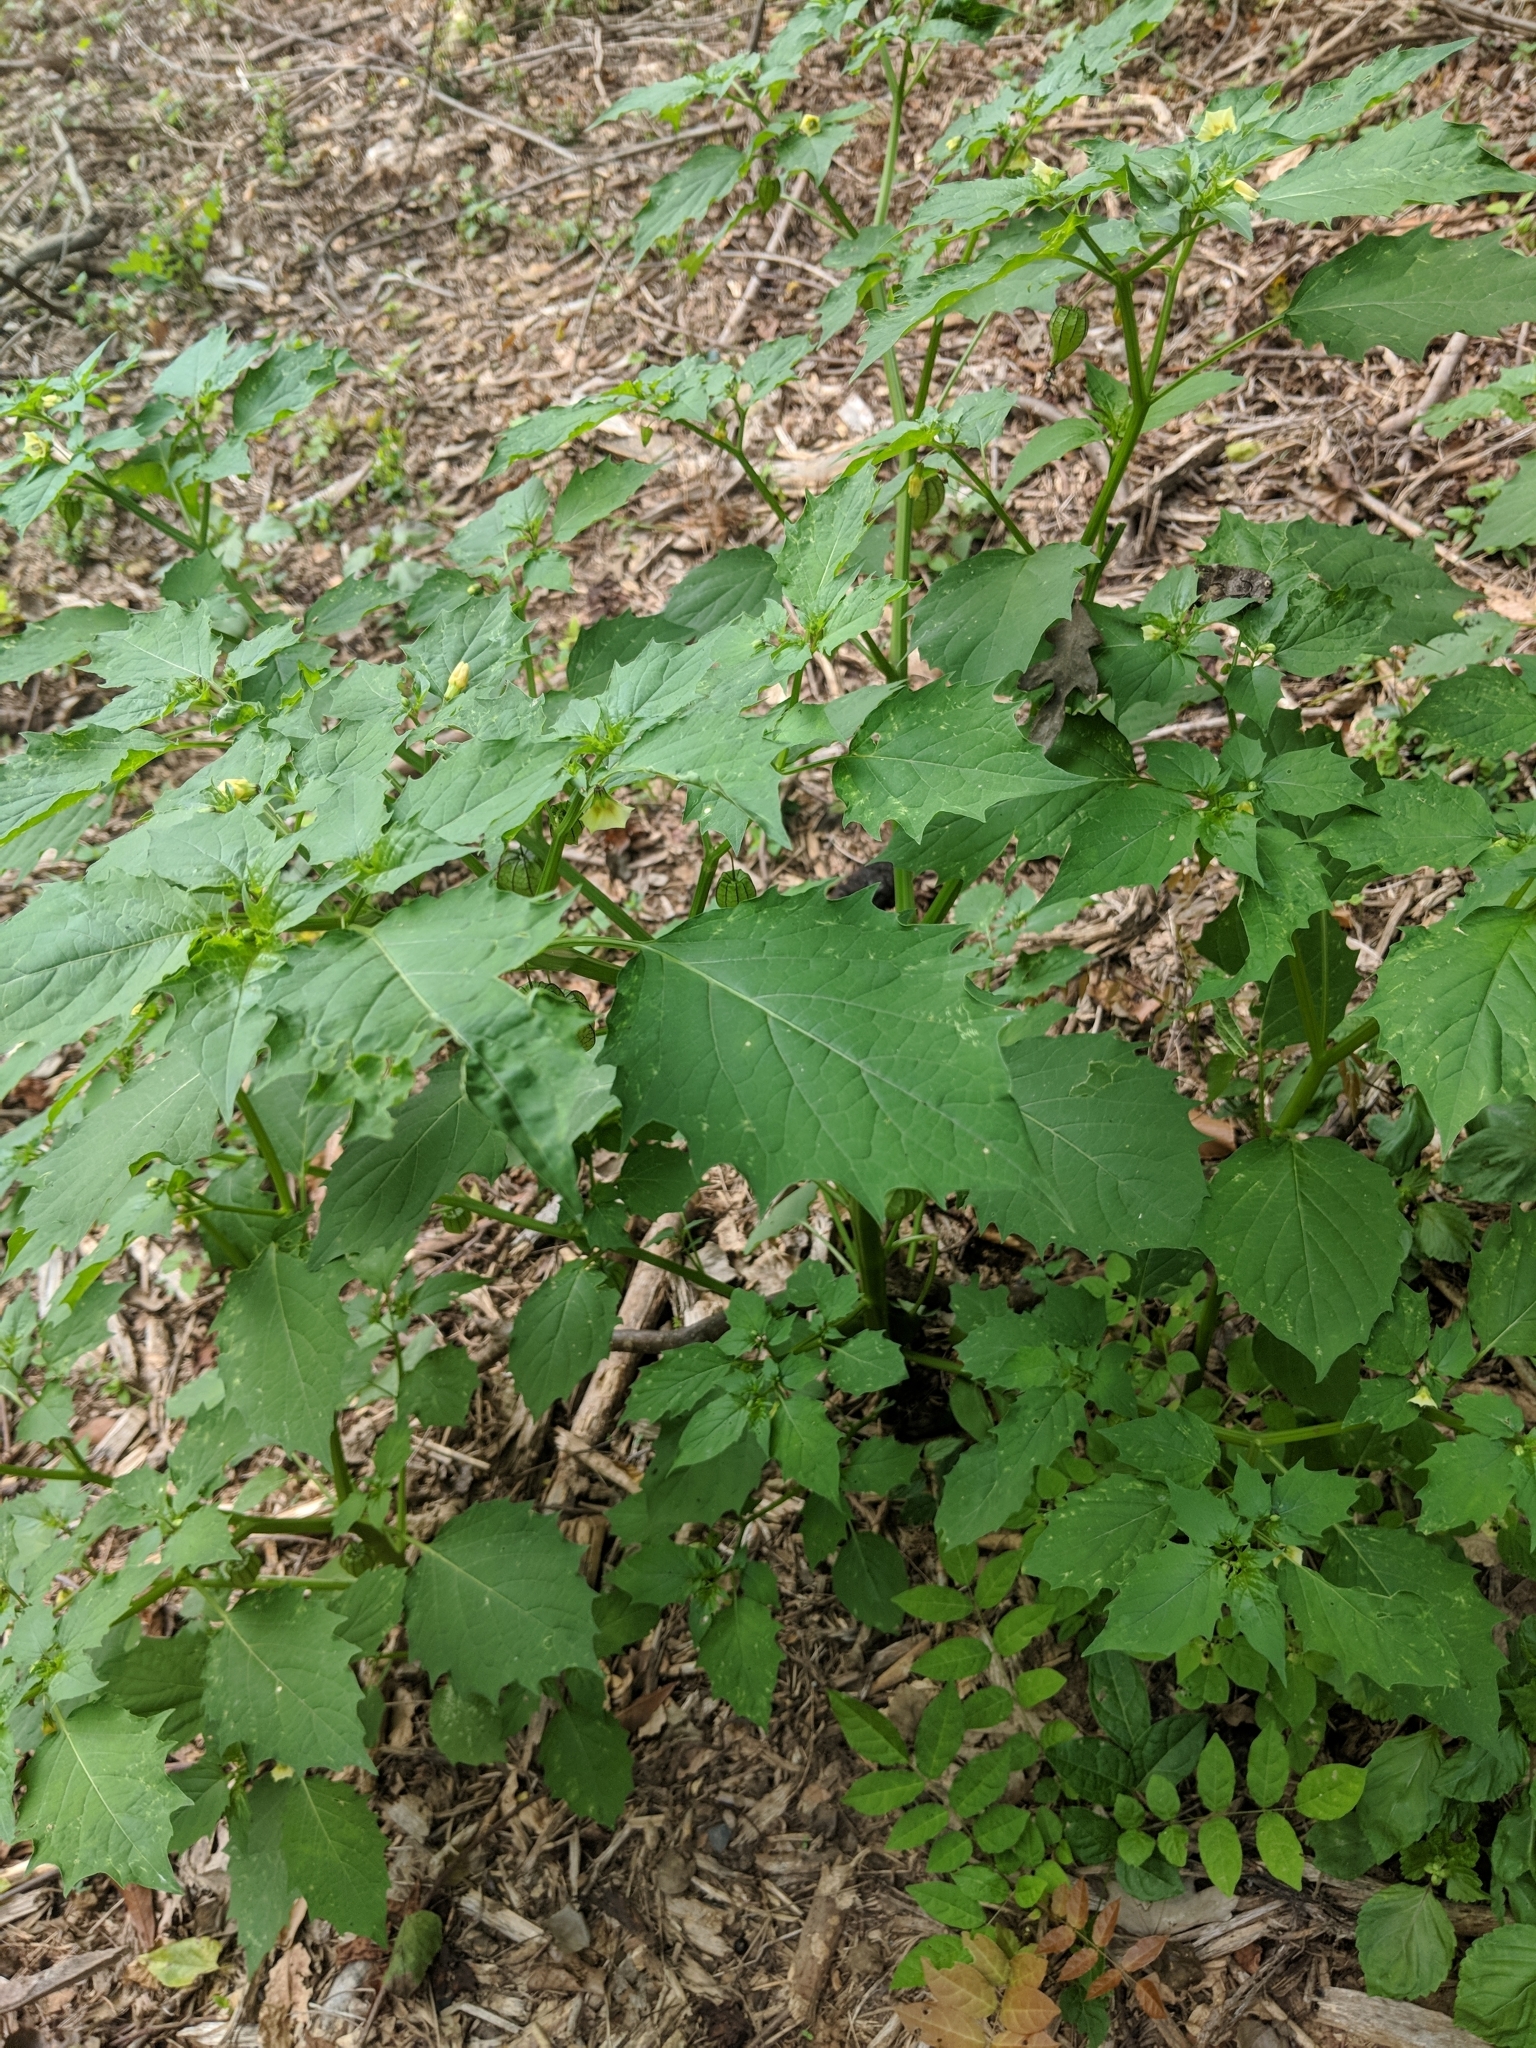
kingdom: Plantae
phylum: Tracheophyta
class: Magnoliopsida
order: Solanales
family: Solanaceae
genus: Physalis
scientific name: Physalis angulata
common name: Angular winter-cherry
